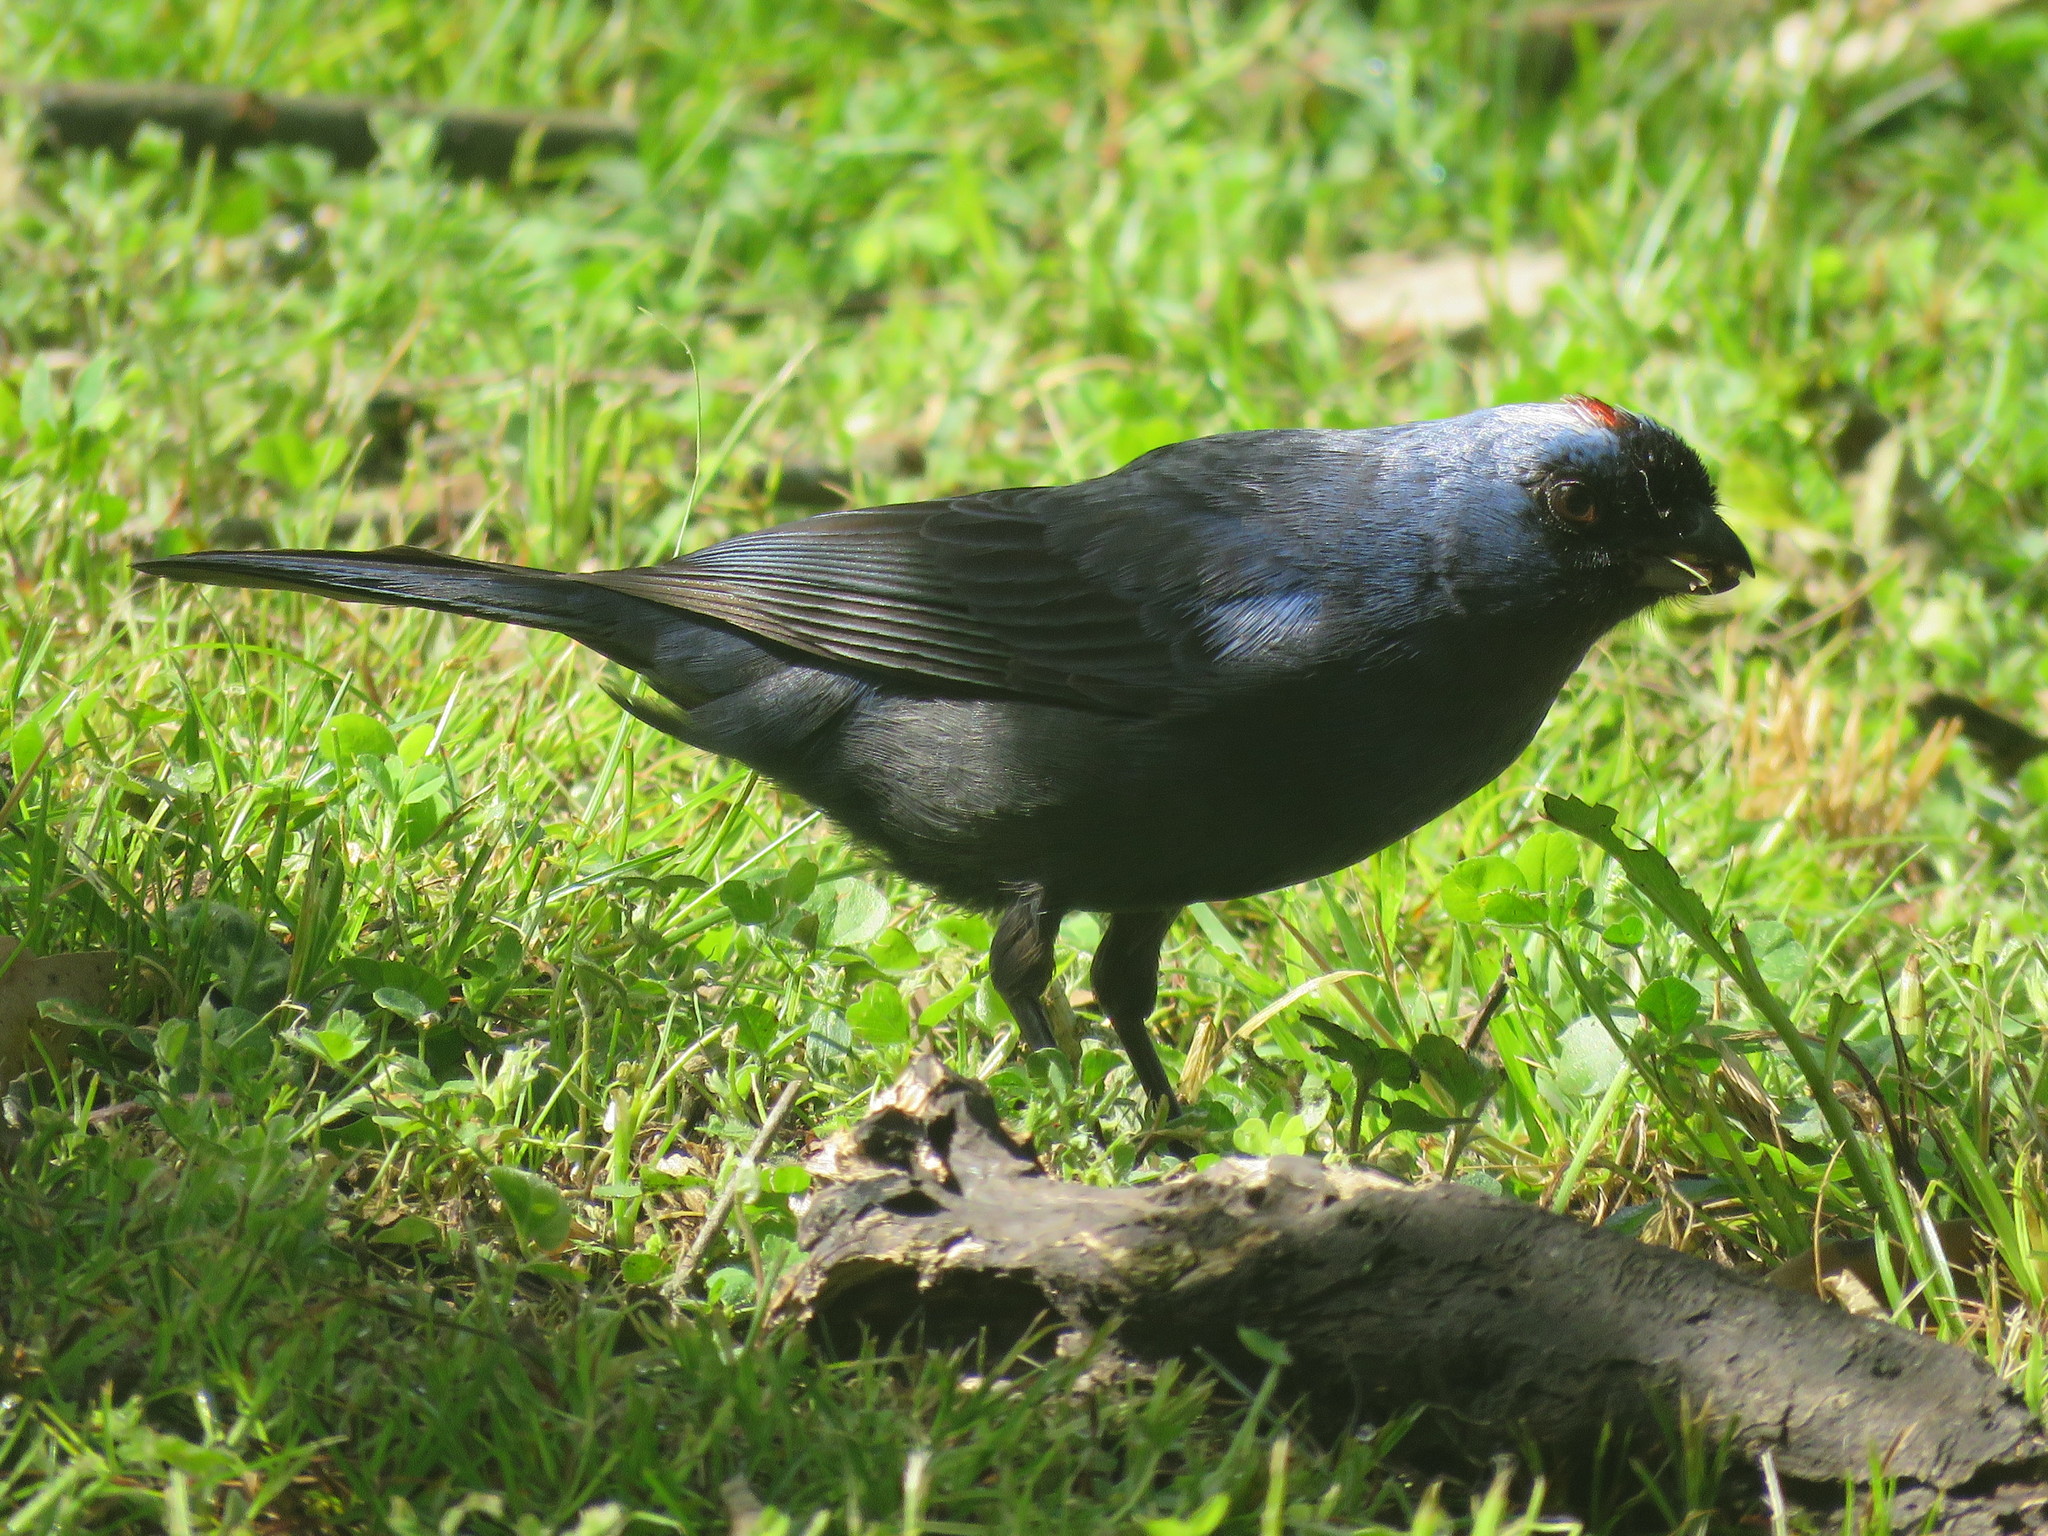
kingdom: Animalia
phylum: Chordata
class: Aves
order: Passeriformes
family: Thraupidae
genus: Stephanophorus
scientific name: Stephanophorus diadematus
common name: Diademed tanager
